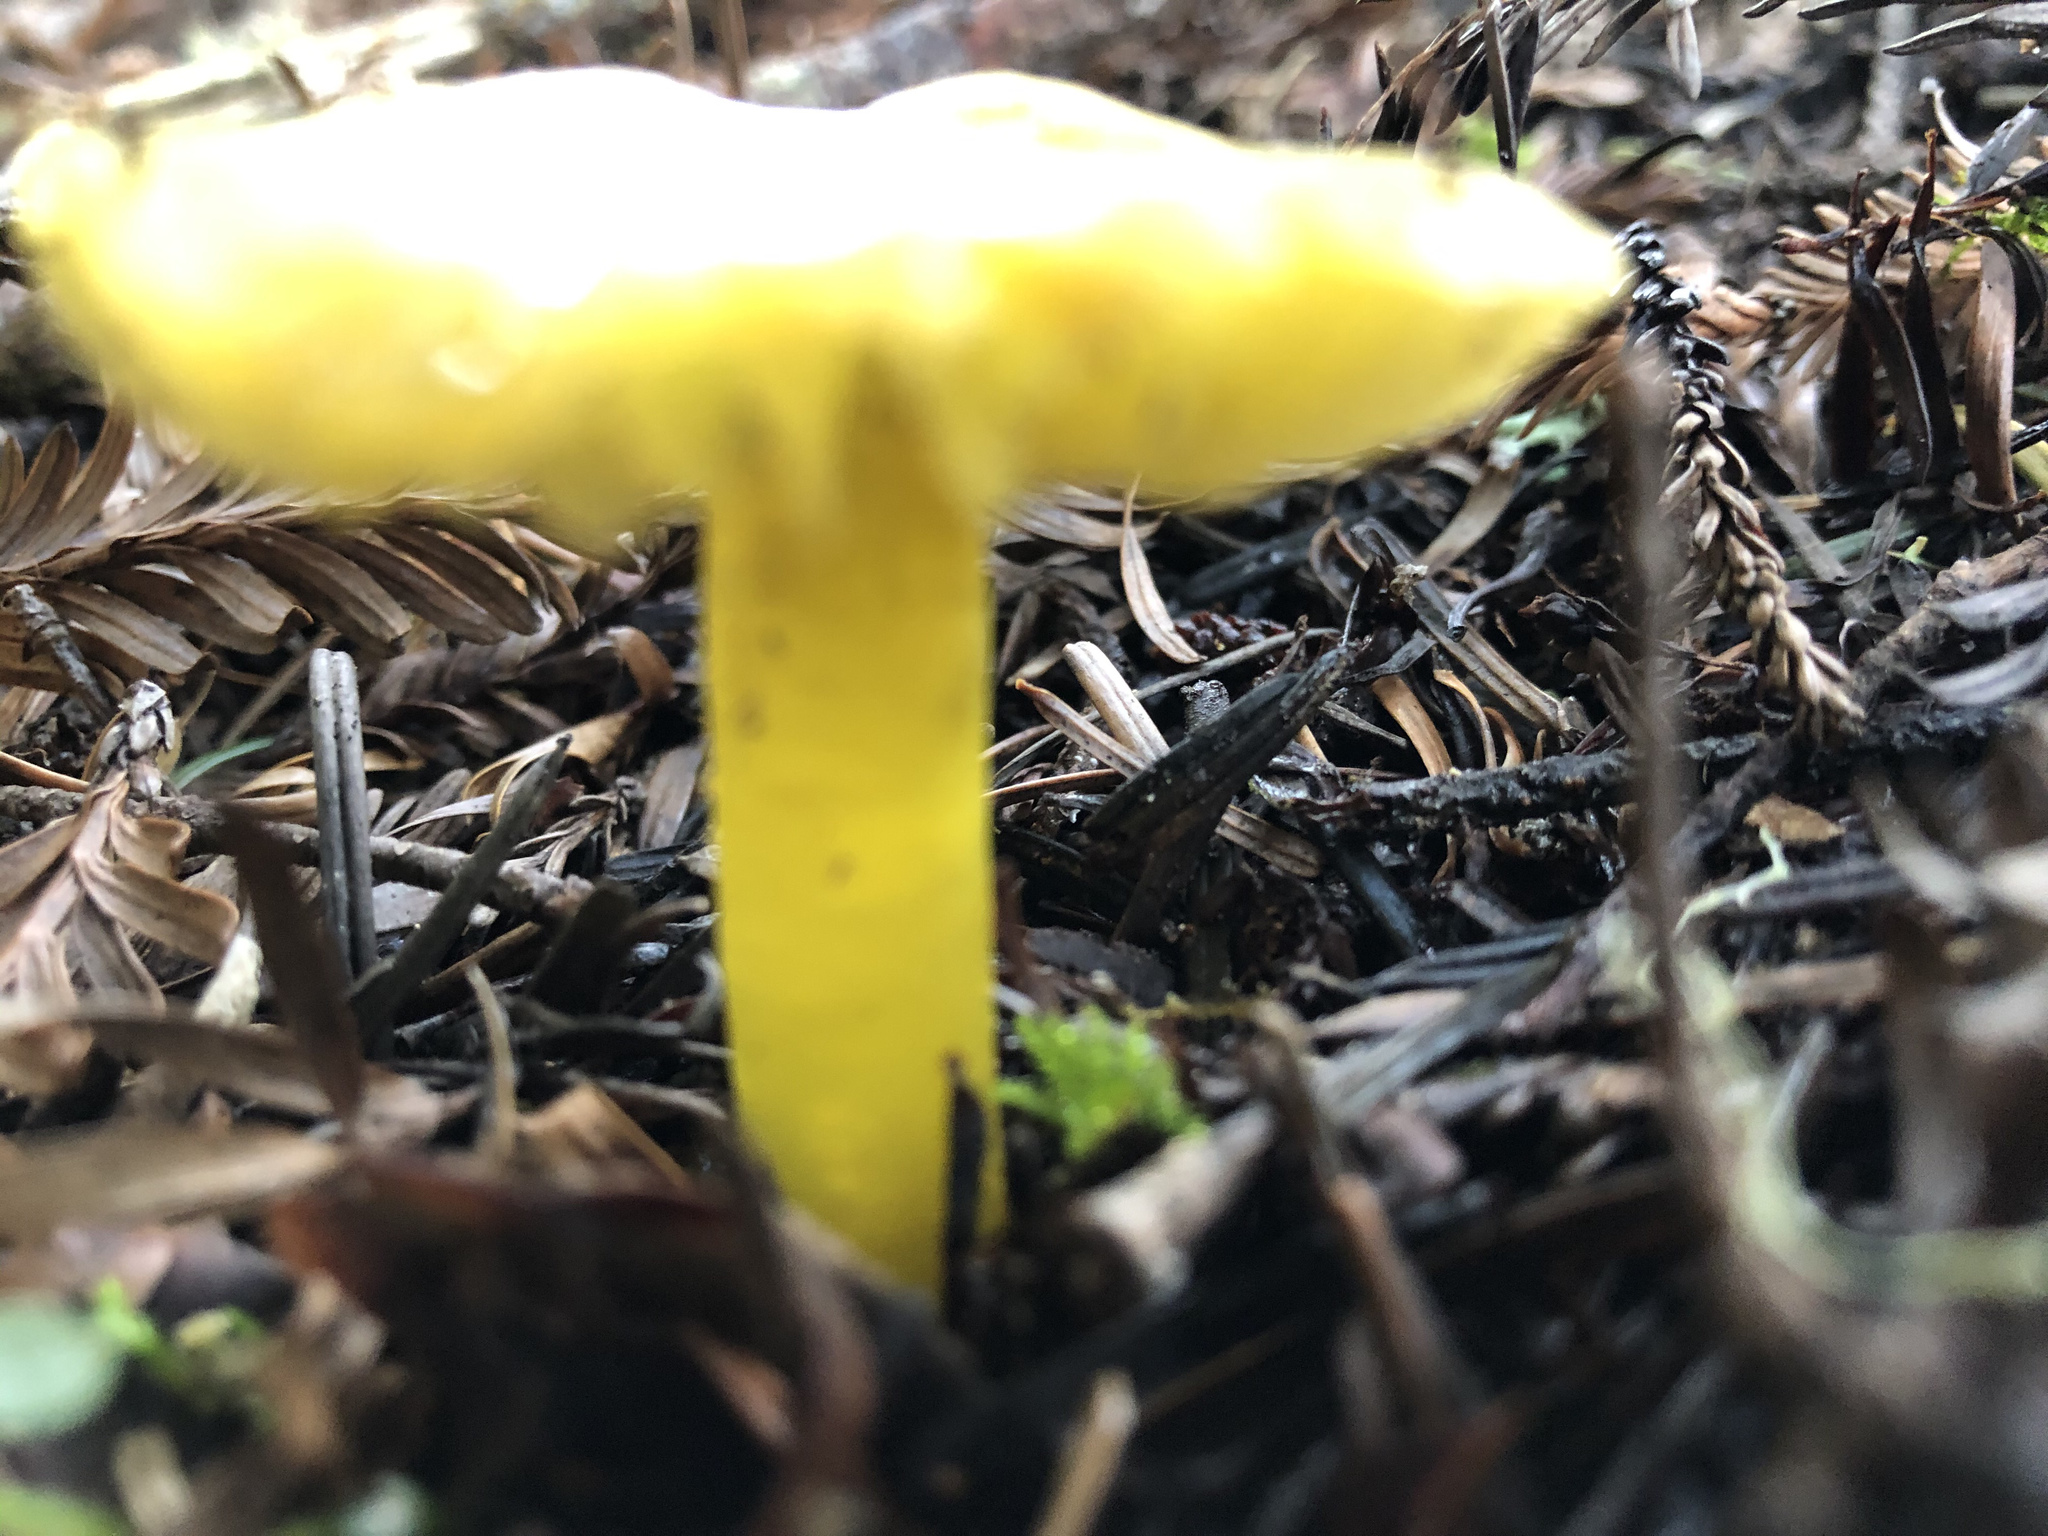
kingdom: Fungi
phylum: Basidiomycota
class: Agaricomycetes
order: Agaricales
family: Hygrophoraceae
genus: Hygrocybe
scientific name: Hygrocybe flavescens
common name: Golden waxy cap
